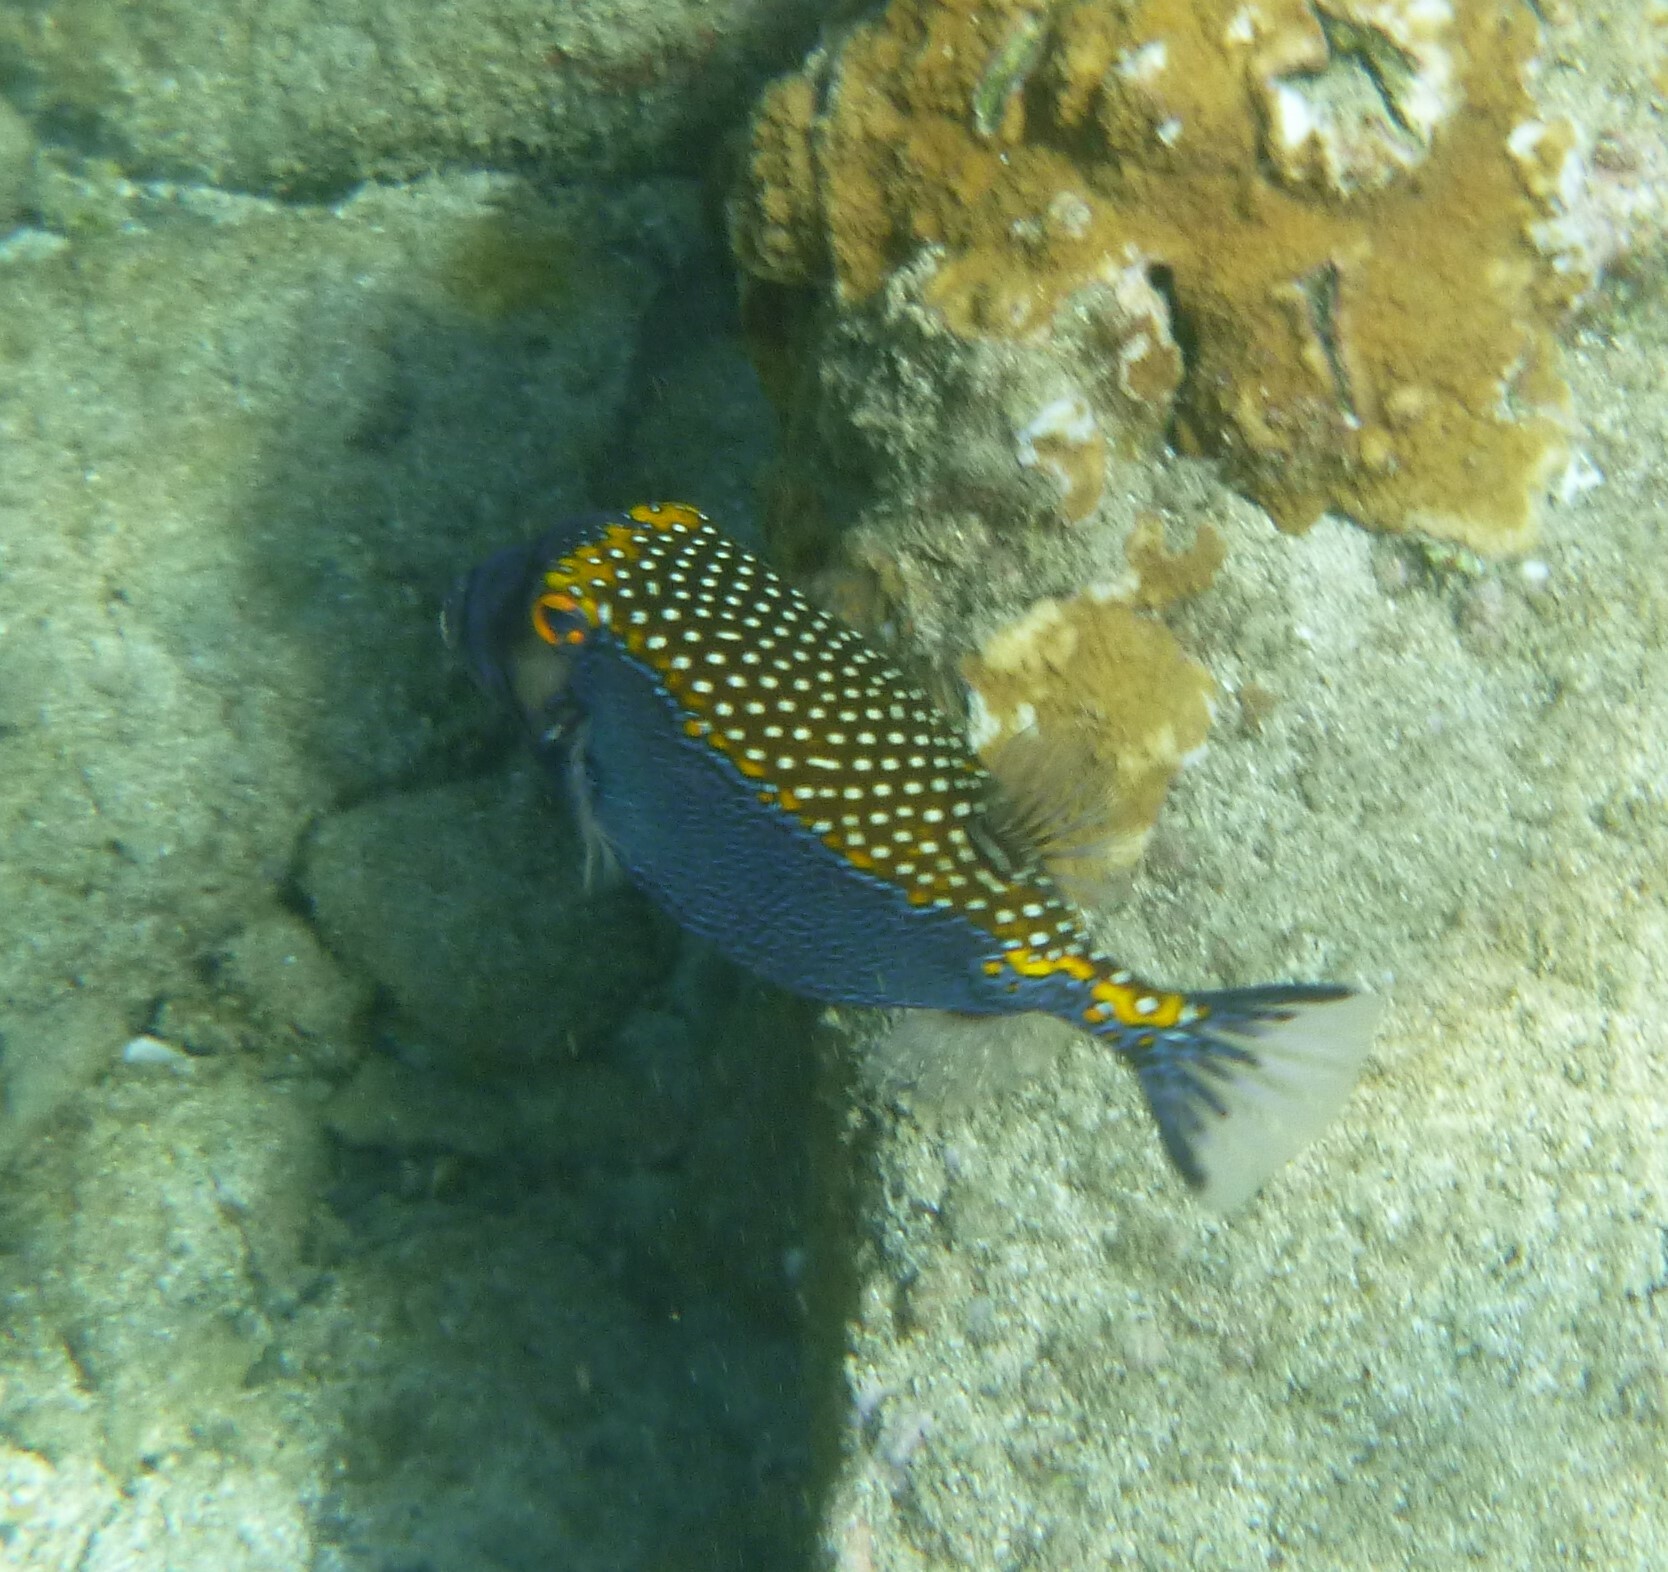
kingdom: Animalia
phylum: Chordata
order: Tetraodontiformes
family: Ostraciidae
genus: Ostracion
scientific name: Ostracion meleagris
